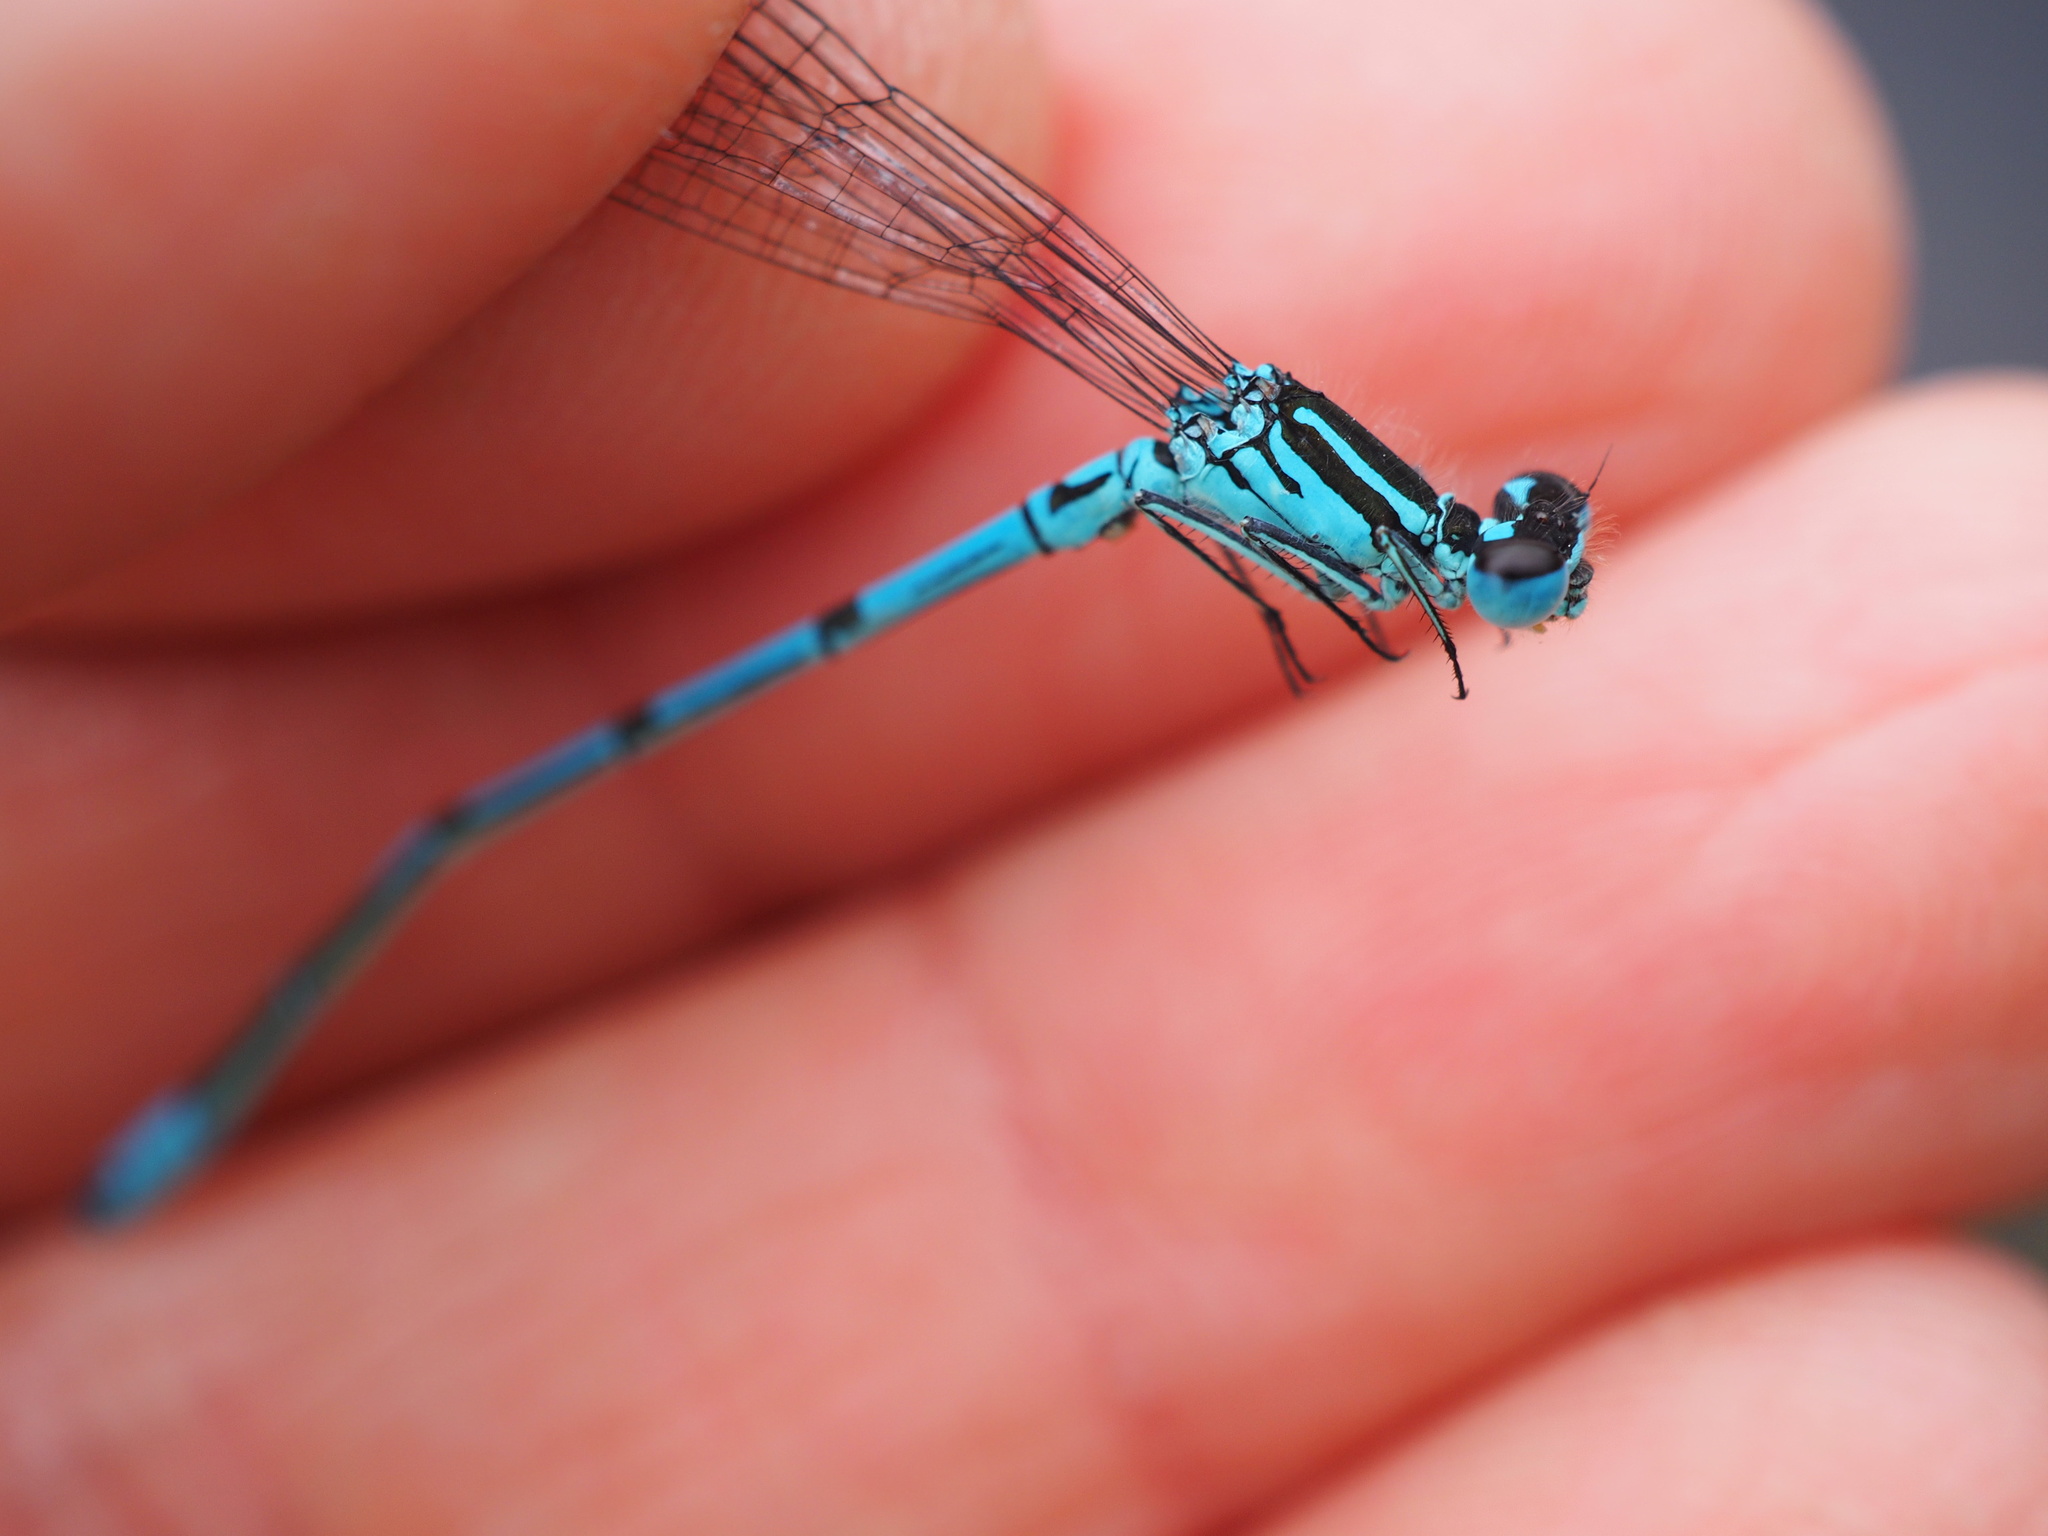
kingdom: Animalia
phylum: Arthropoda
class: Insecta
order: Odonata
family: Coenagrionidae
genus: Coenagrion
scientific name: Coenagrion puella
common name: Azure damselfly
